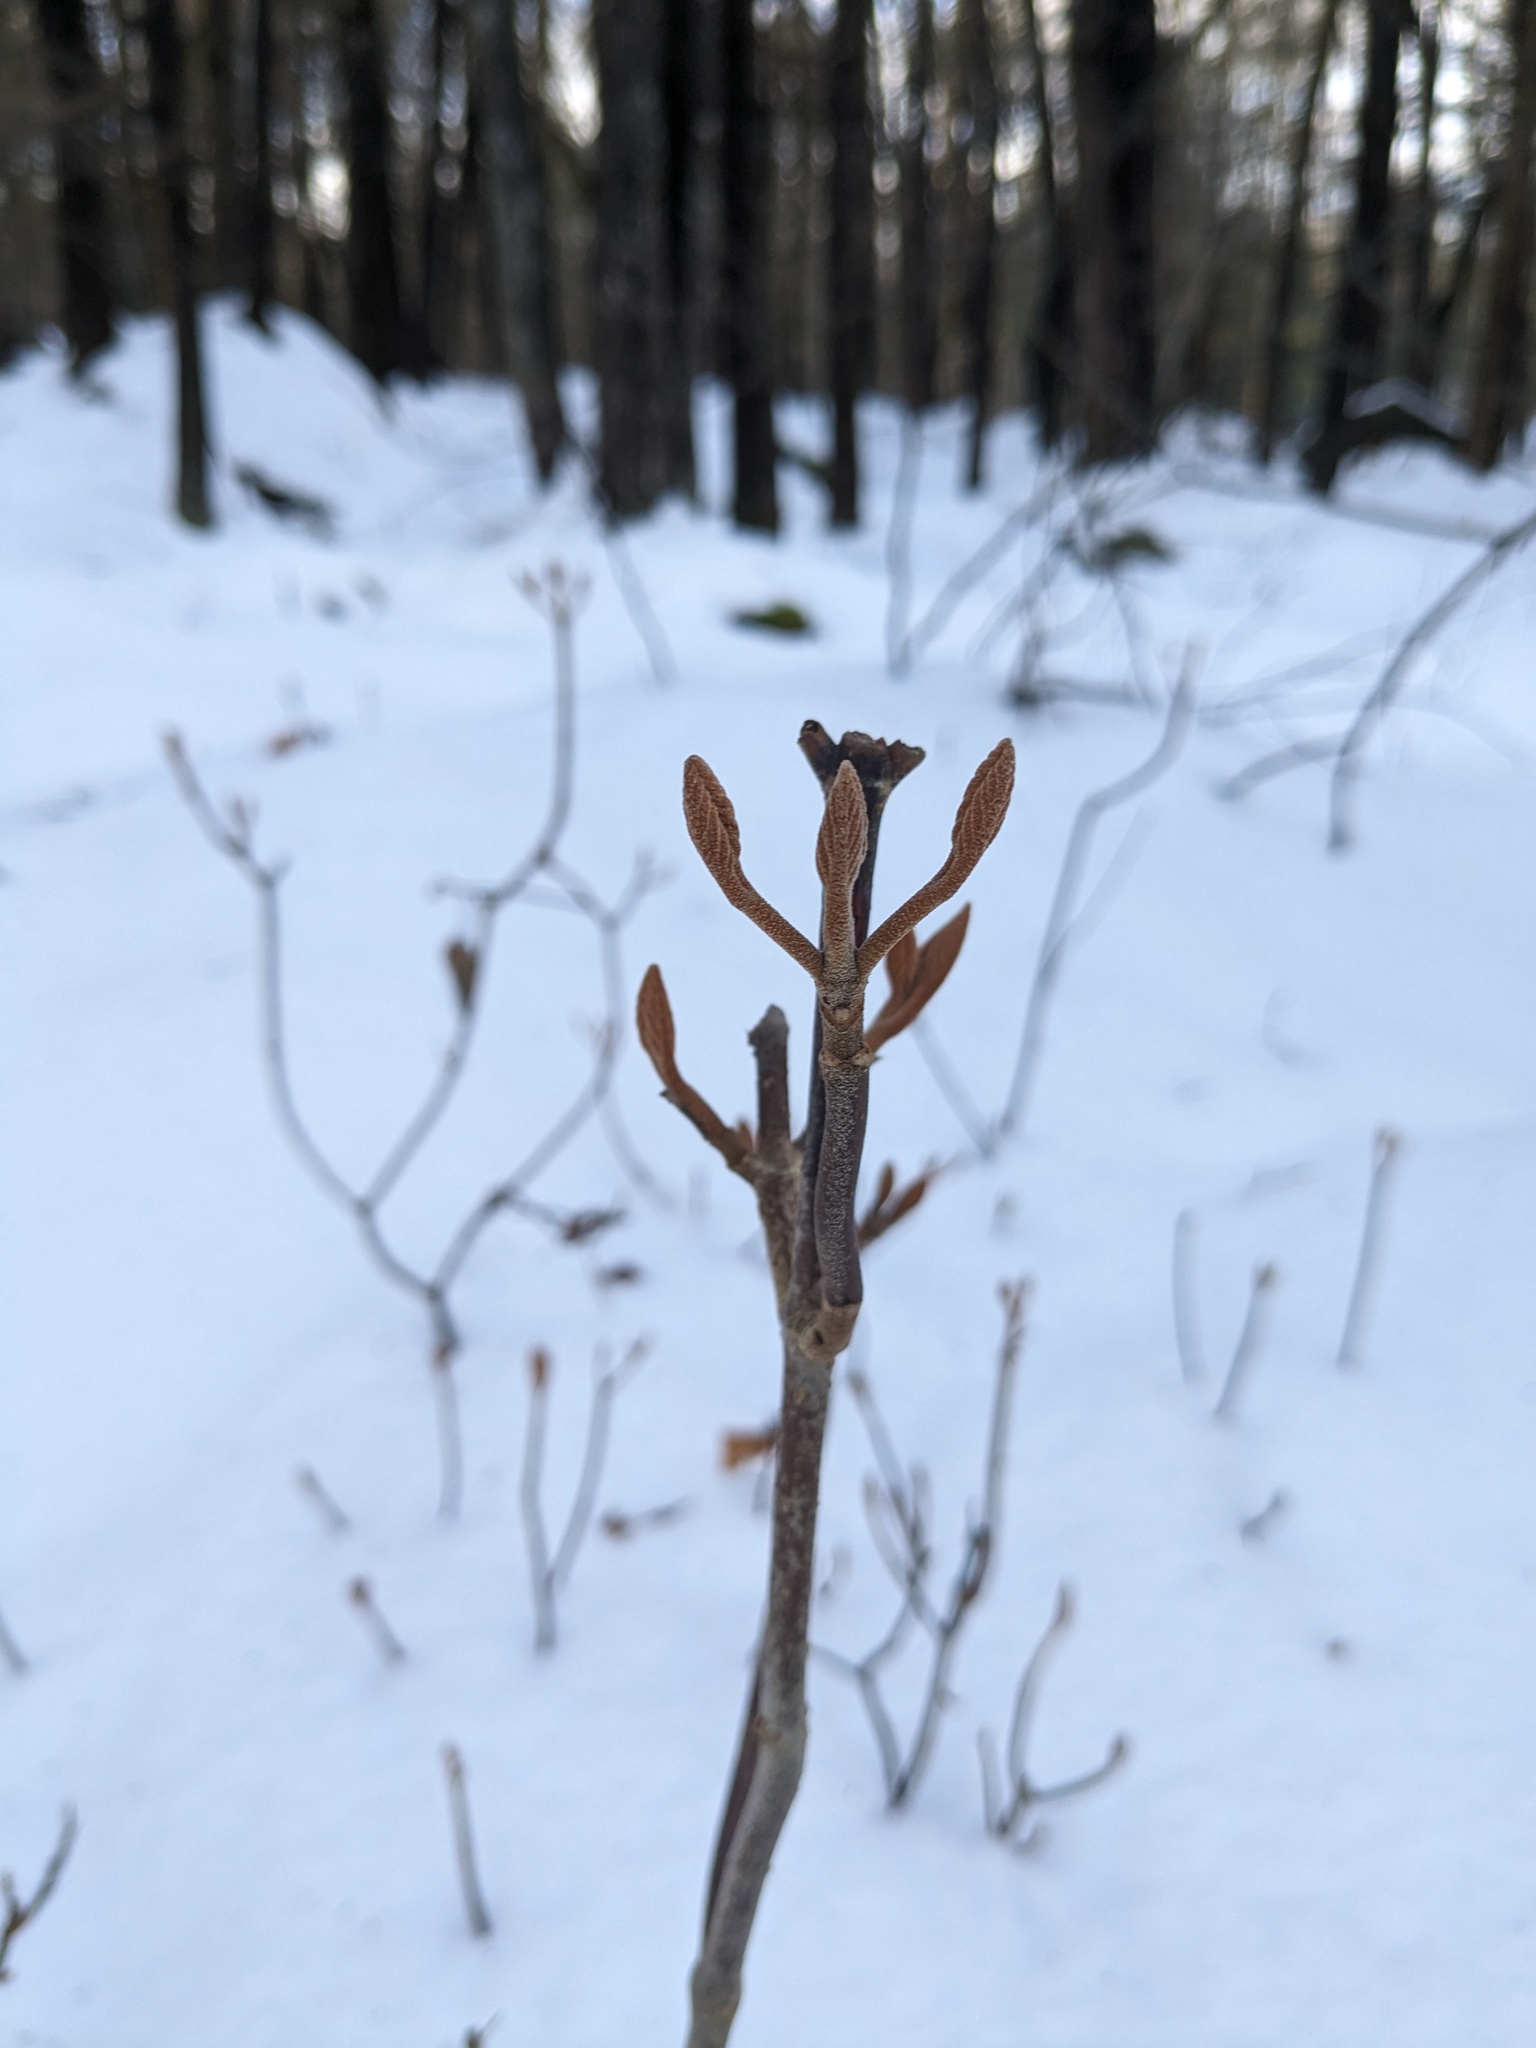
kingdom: Plantae
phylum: Tracheophyta
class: Magnoliopsida
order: Dipsacales
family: Viburnaceae
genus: Viburnum
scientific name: Viburnum lantanoides
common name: Hobblebush
